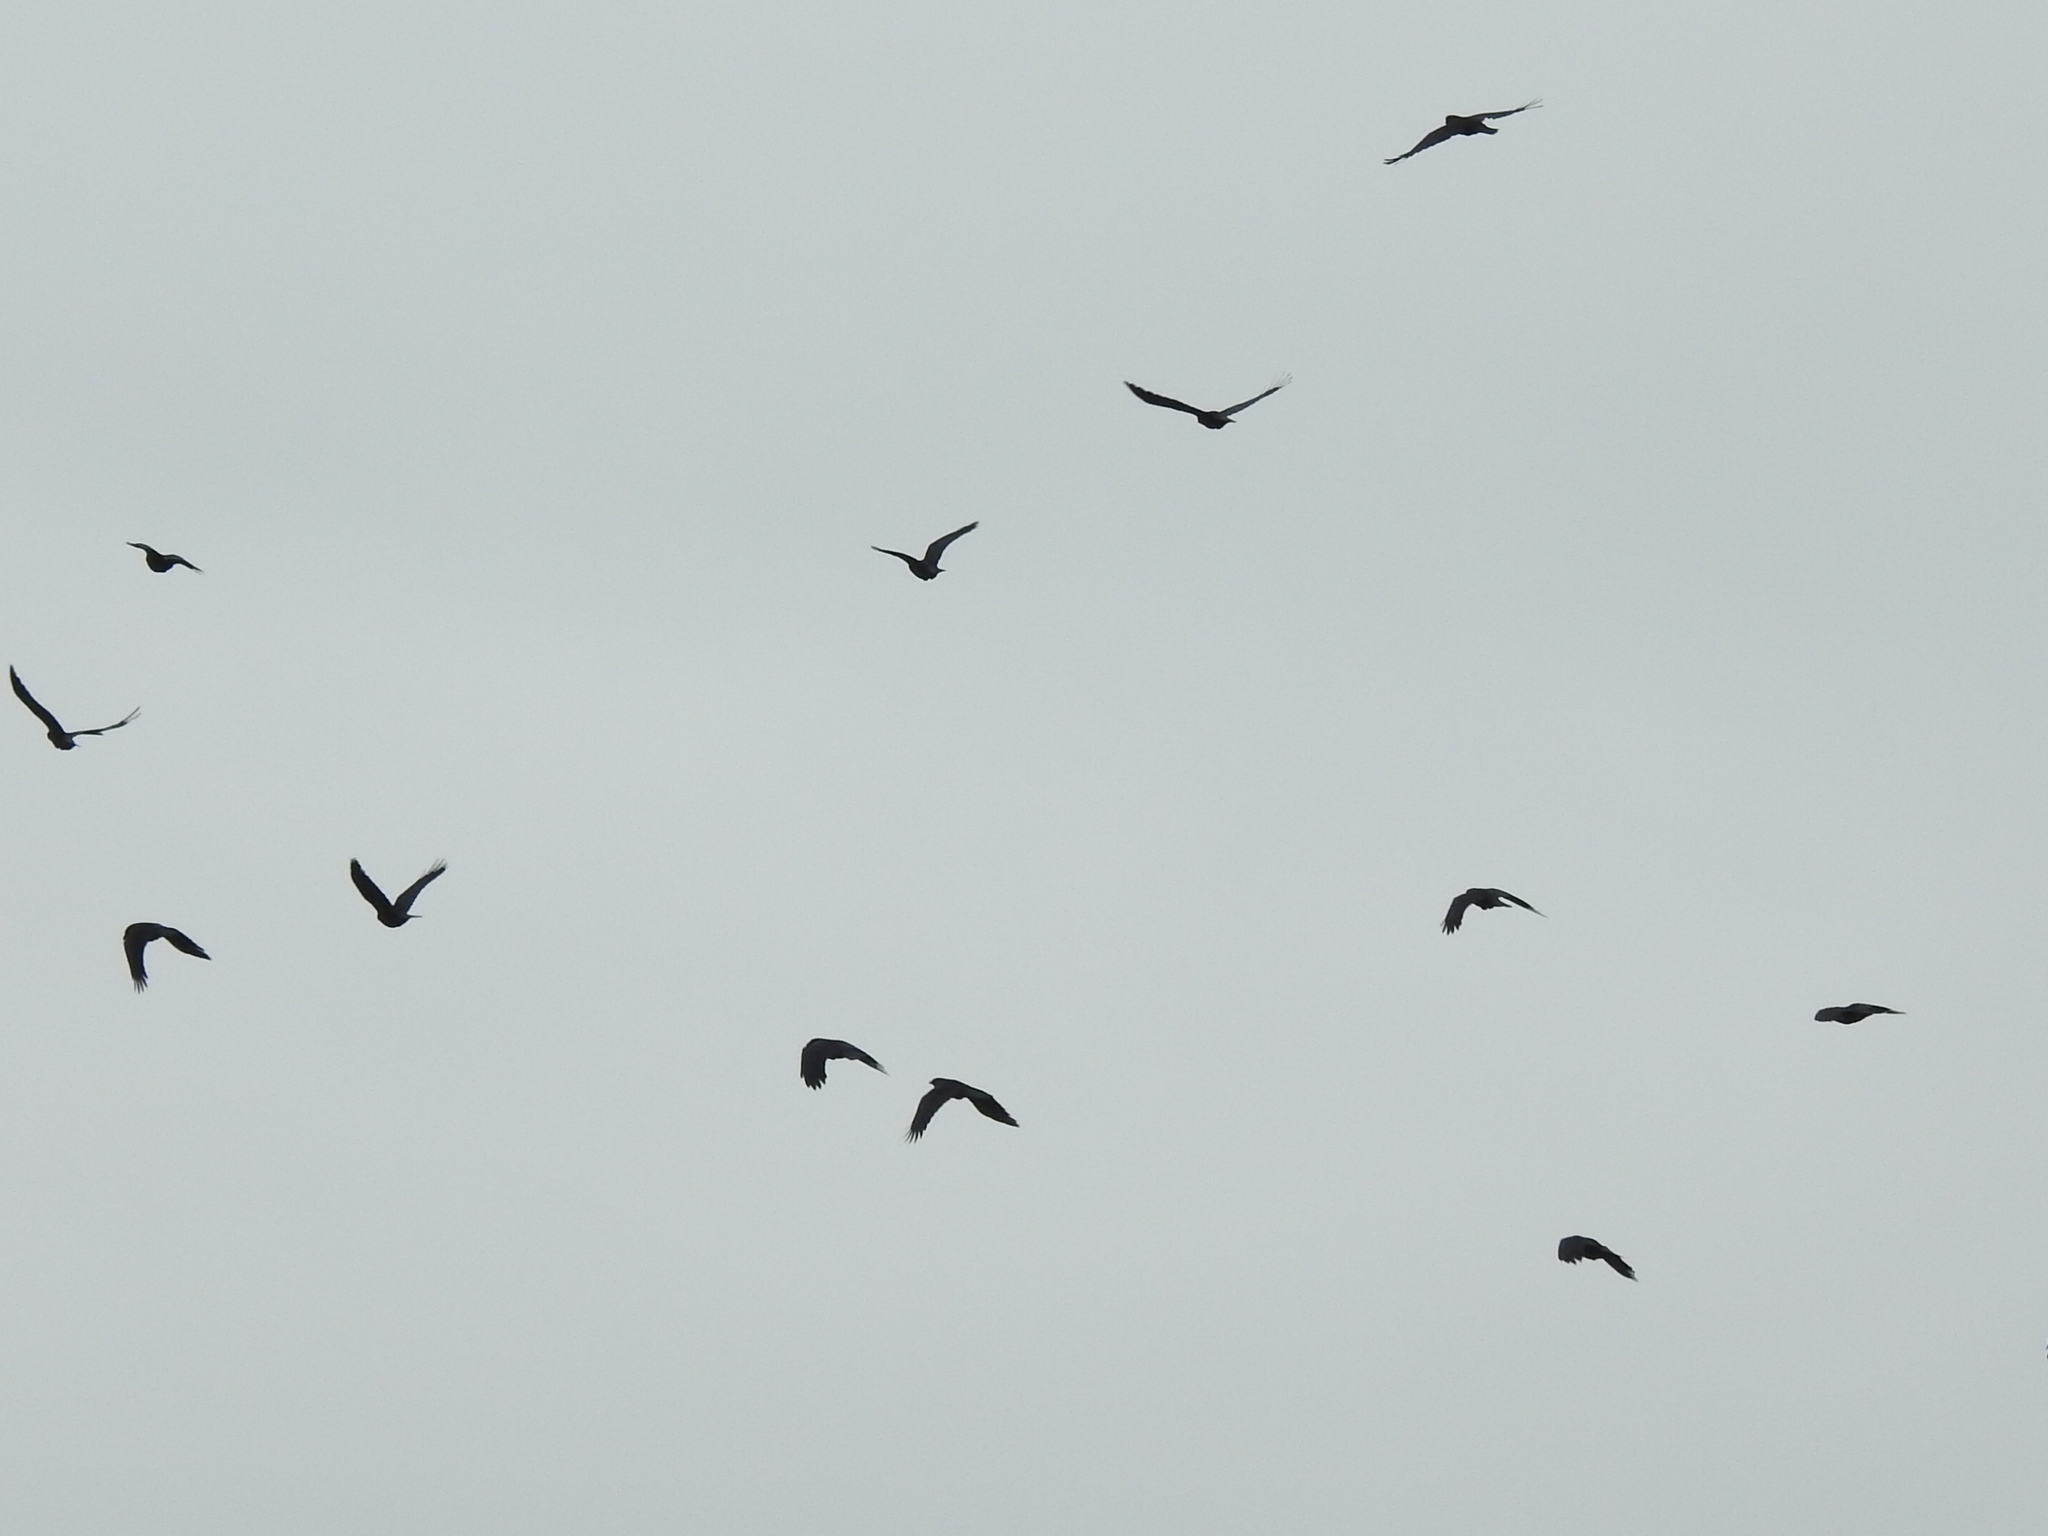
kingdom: Animalia
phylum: Chordata
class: Aves
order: Passeriformes
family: Corvidae
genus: Corvus
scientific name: Corvus brachyrhynchos
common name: American crow
